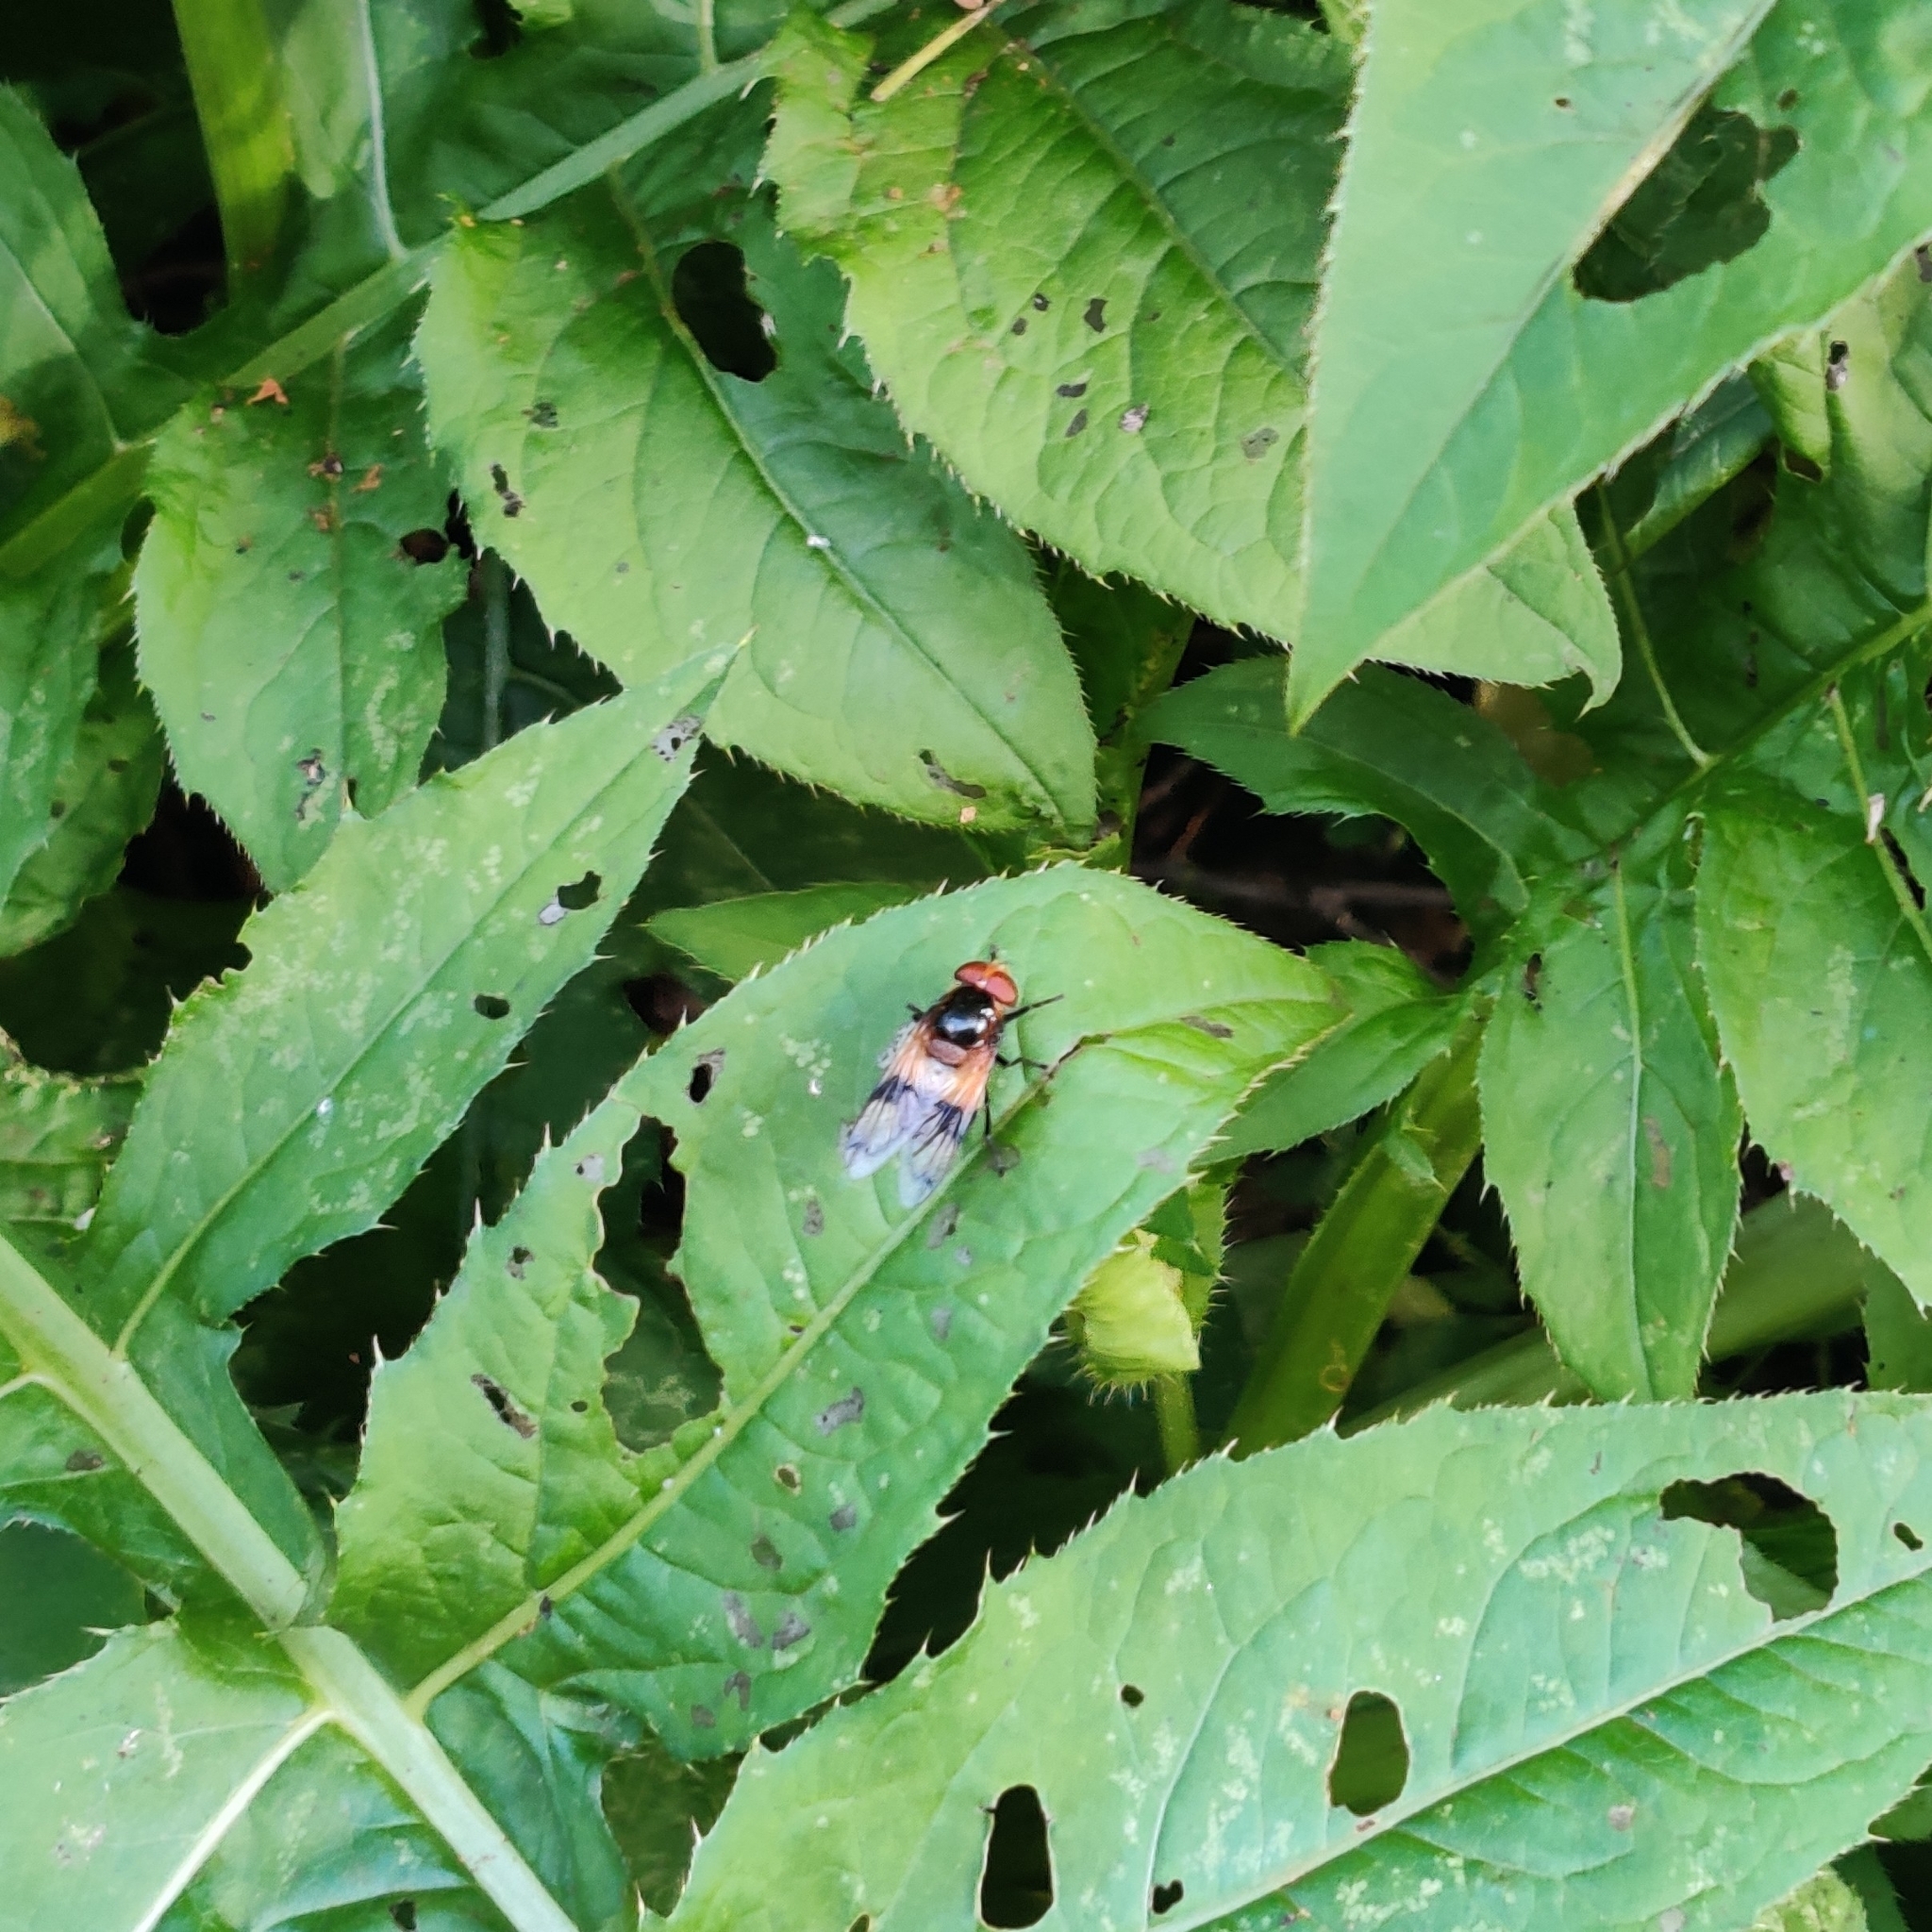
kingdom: Animalia
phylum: Arthropoda
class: Insecta
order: Diptera
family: Syrphidae
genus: Volucella
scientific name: Volucella pellucens
